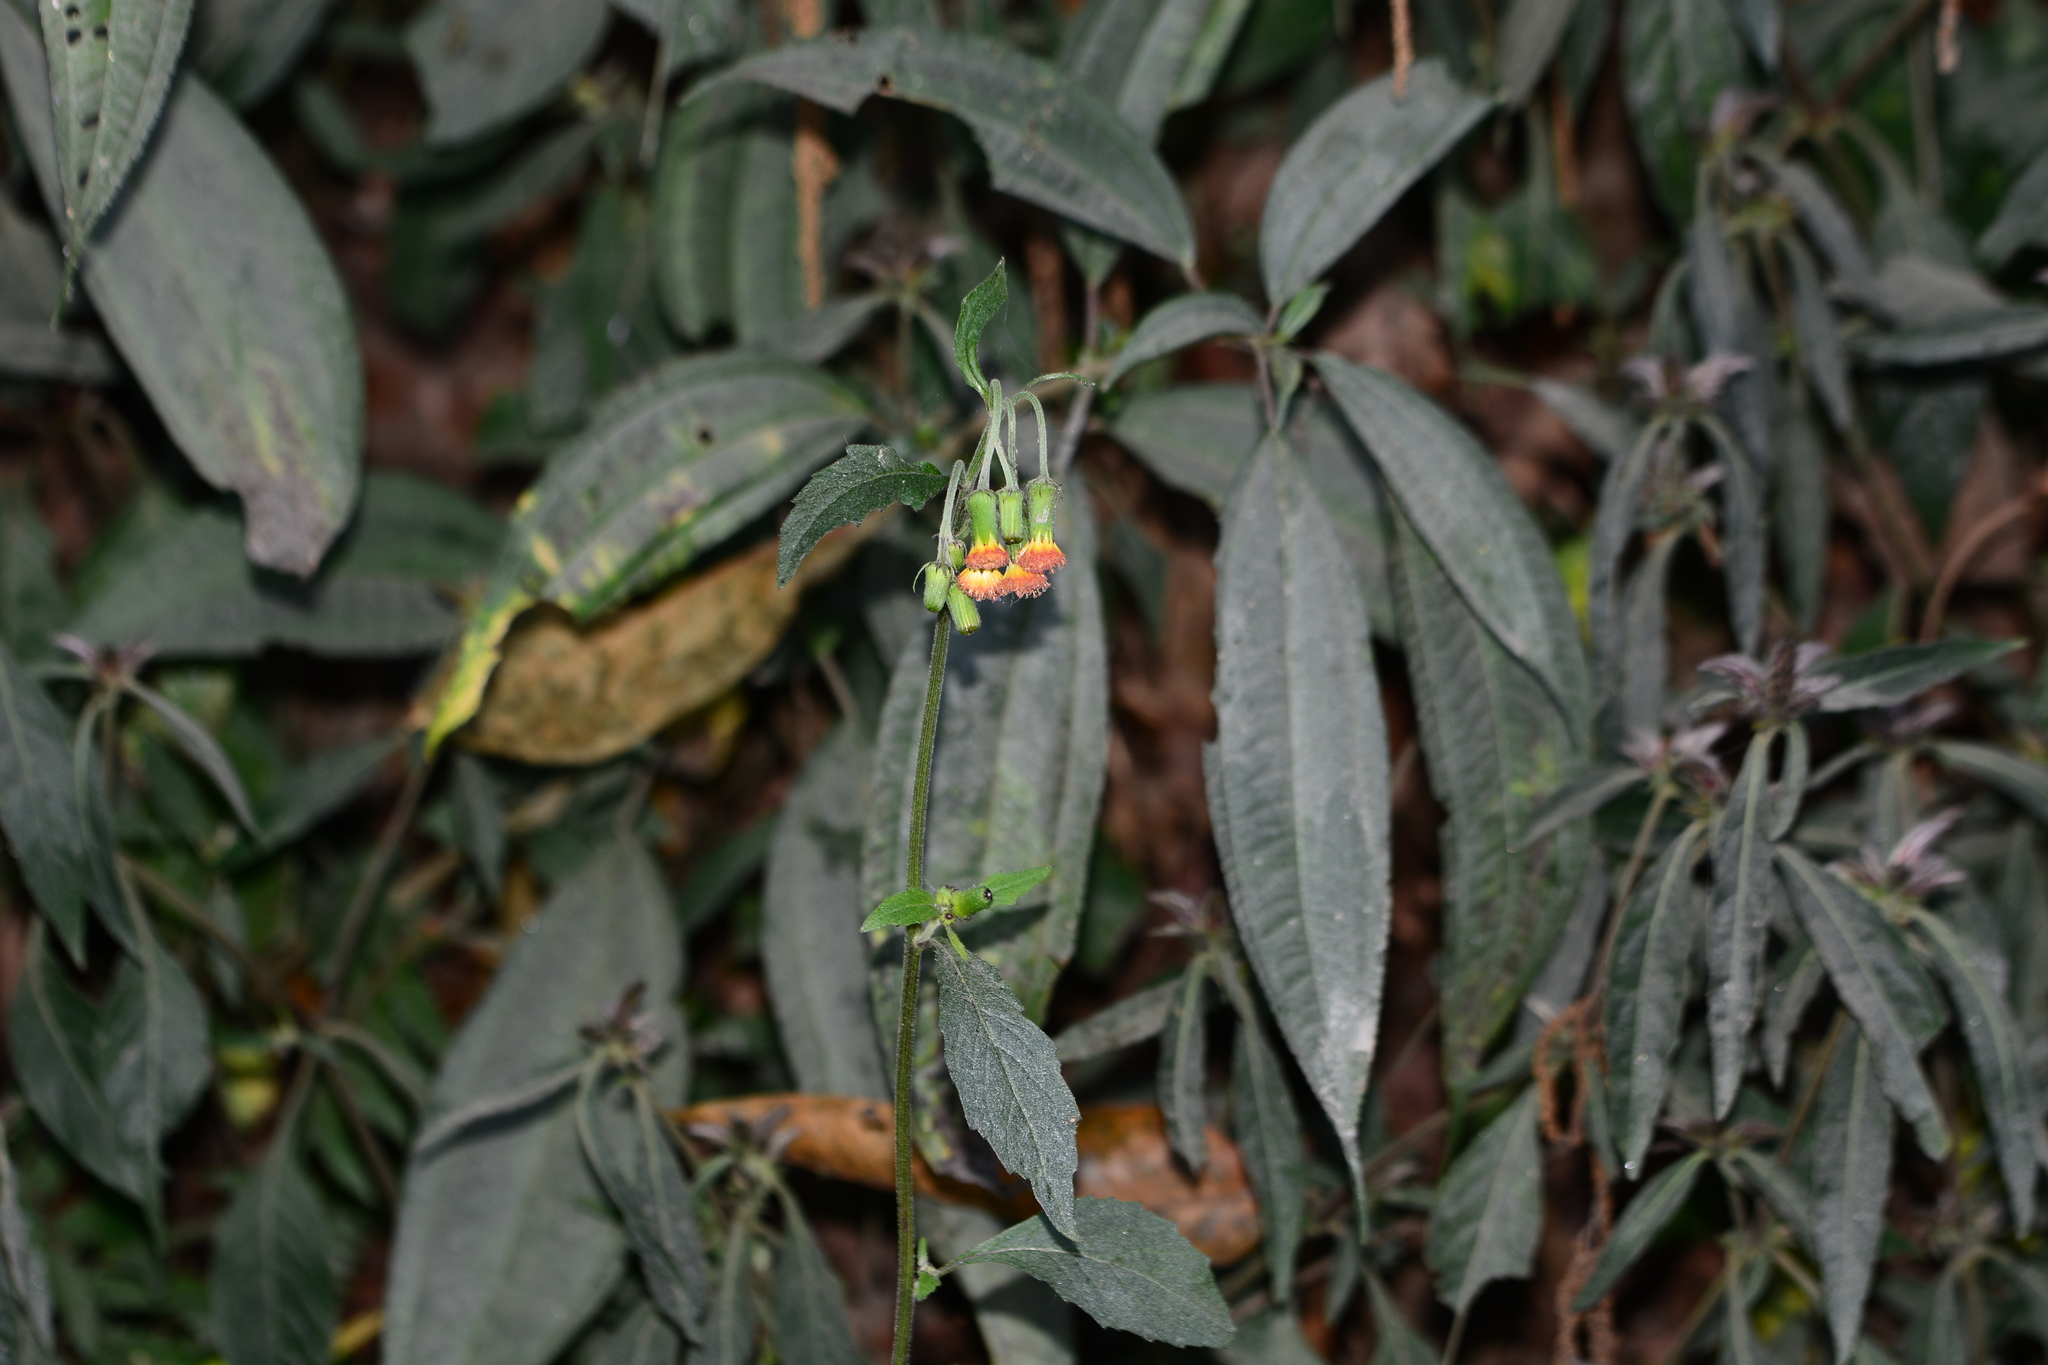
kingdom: Plantae
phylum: Tracheophyta
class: Magnoliopsida
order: Asterales
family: Asteraceae
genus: Crassocephalum
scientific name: Crassocephalum crepidioides
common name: Redflower ragleaf
